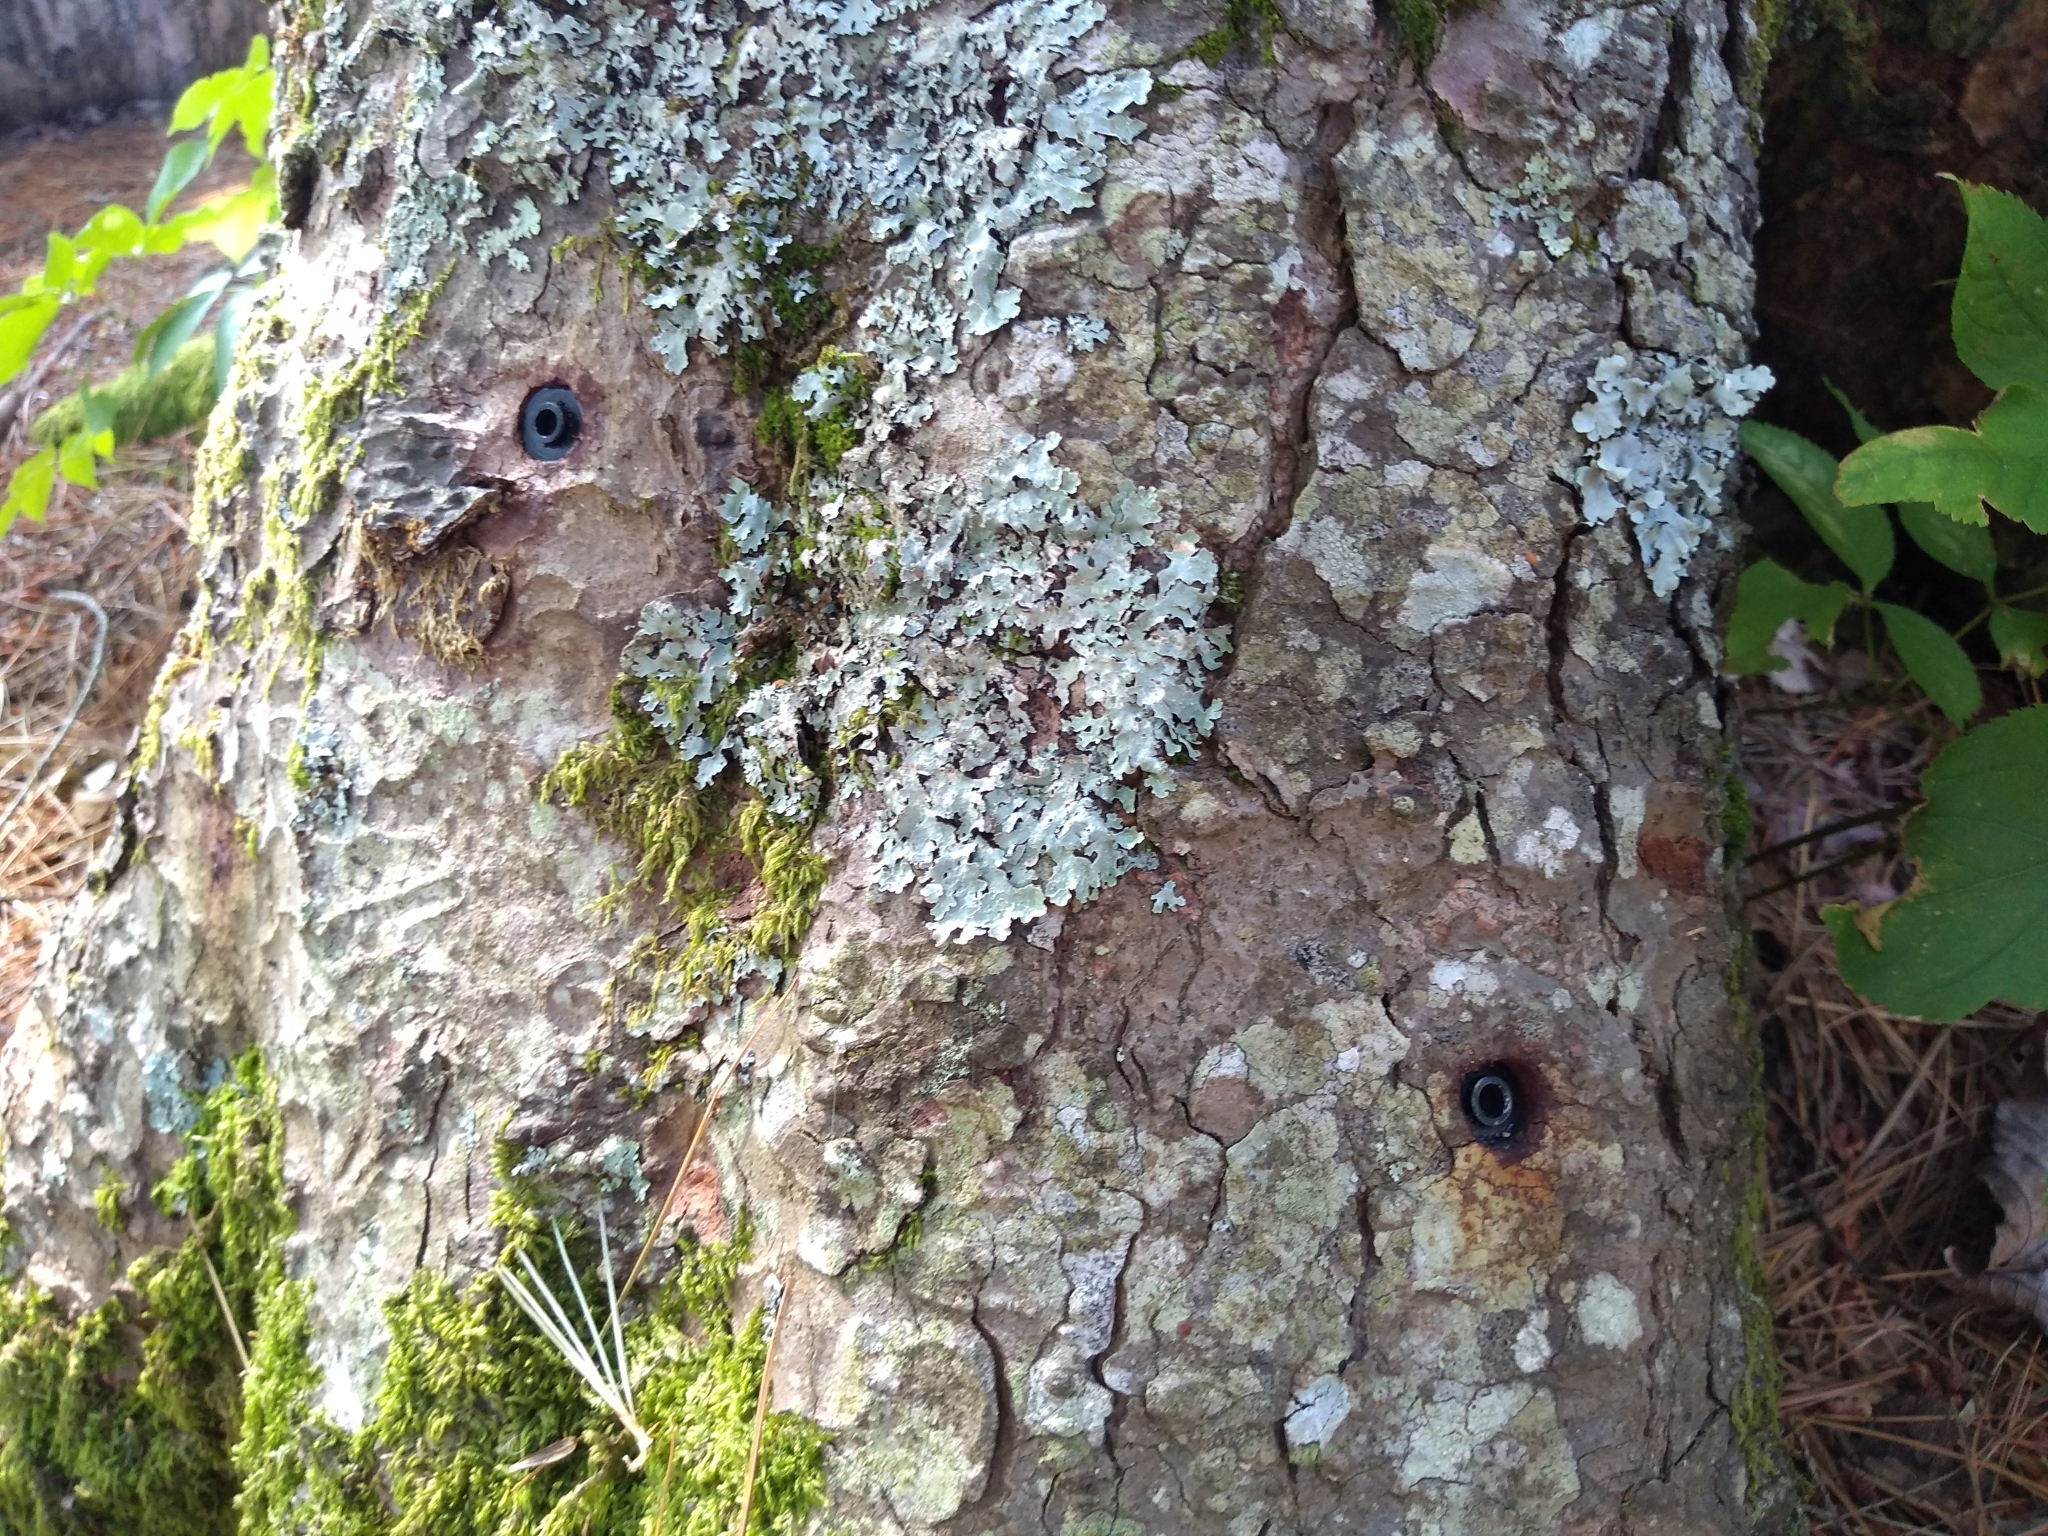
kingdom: Plantae
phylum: Tracheophyta
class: Pinopsida
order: Pinales
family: Pinaceae
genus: Tsuga
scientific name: Tsuga canadensis
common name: Eastern hemlock
